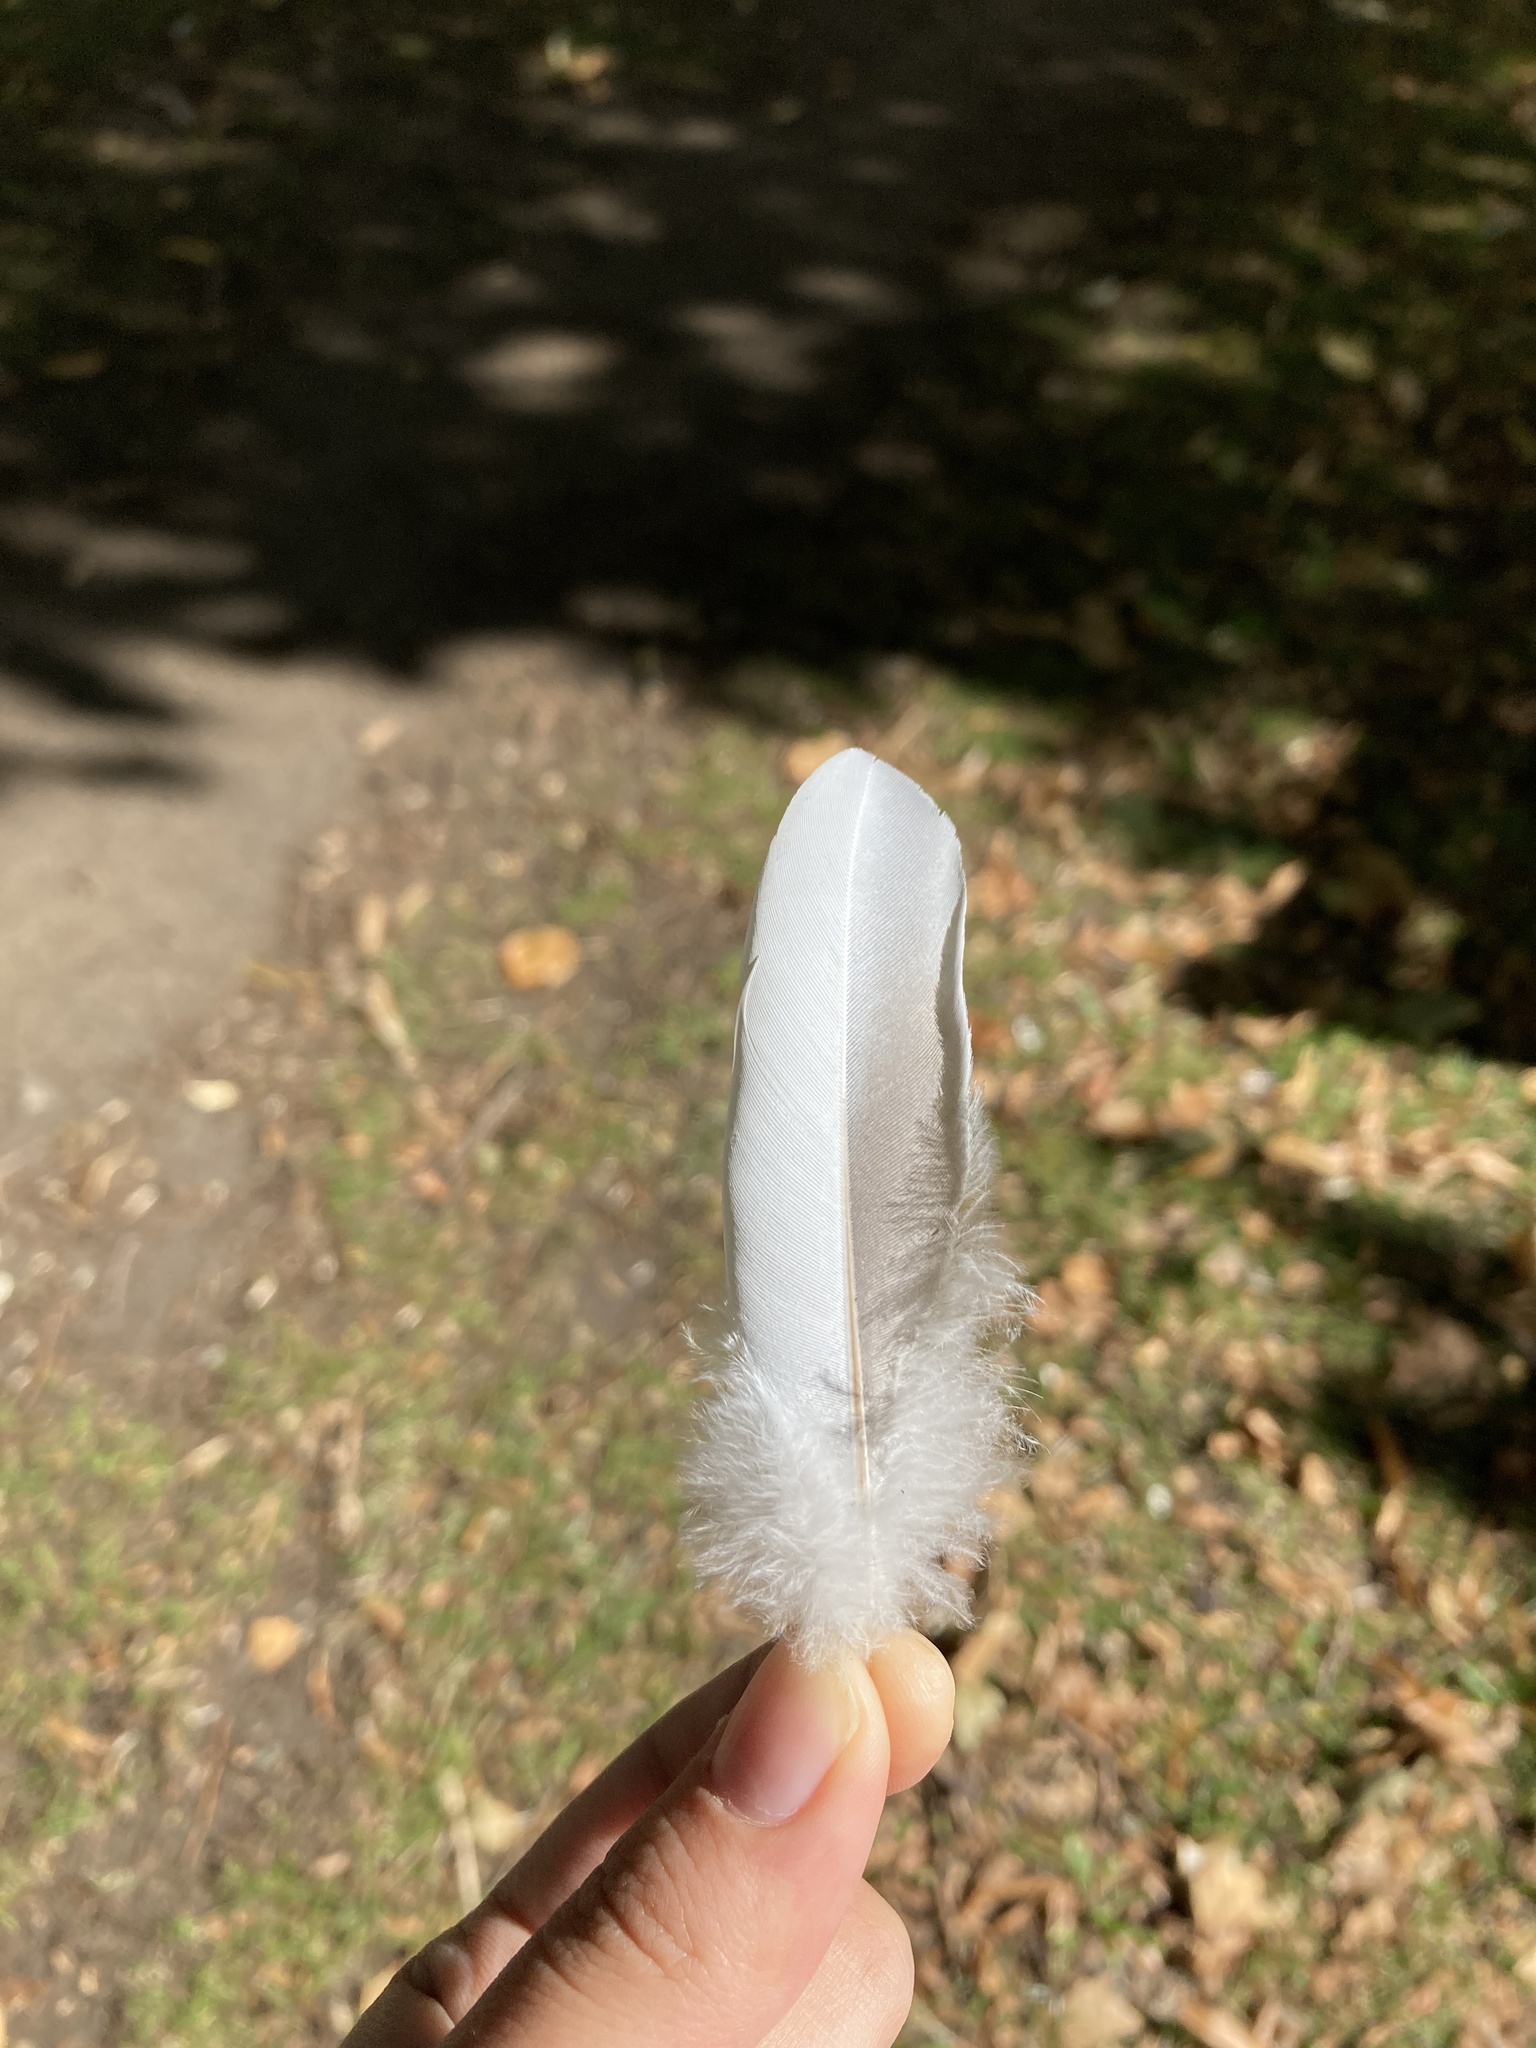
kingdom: Animalia
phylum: Chordata
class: Aves
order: Columbiformes
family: Columbidae
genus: Columba
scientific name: Columba palumbus
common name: Common wood pigeon
